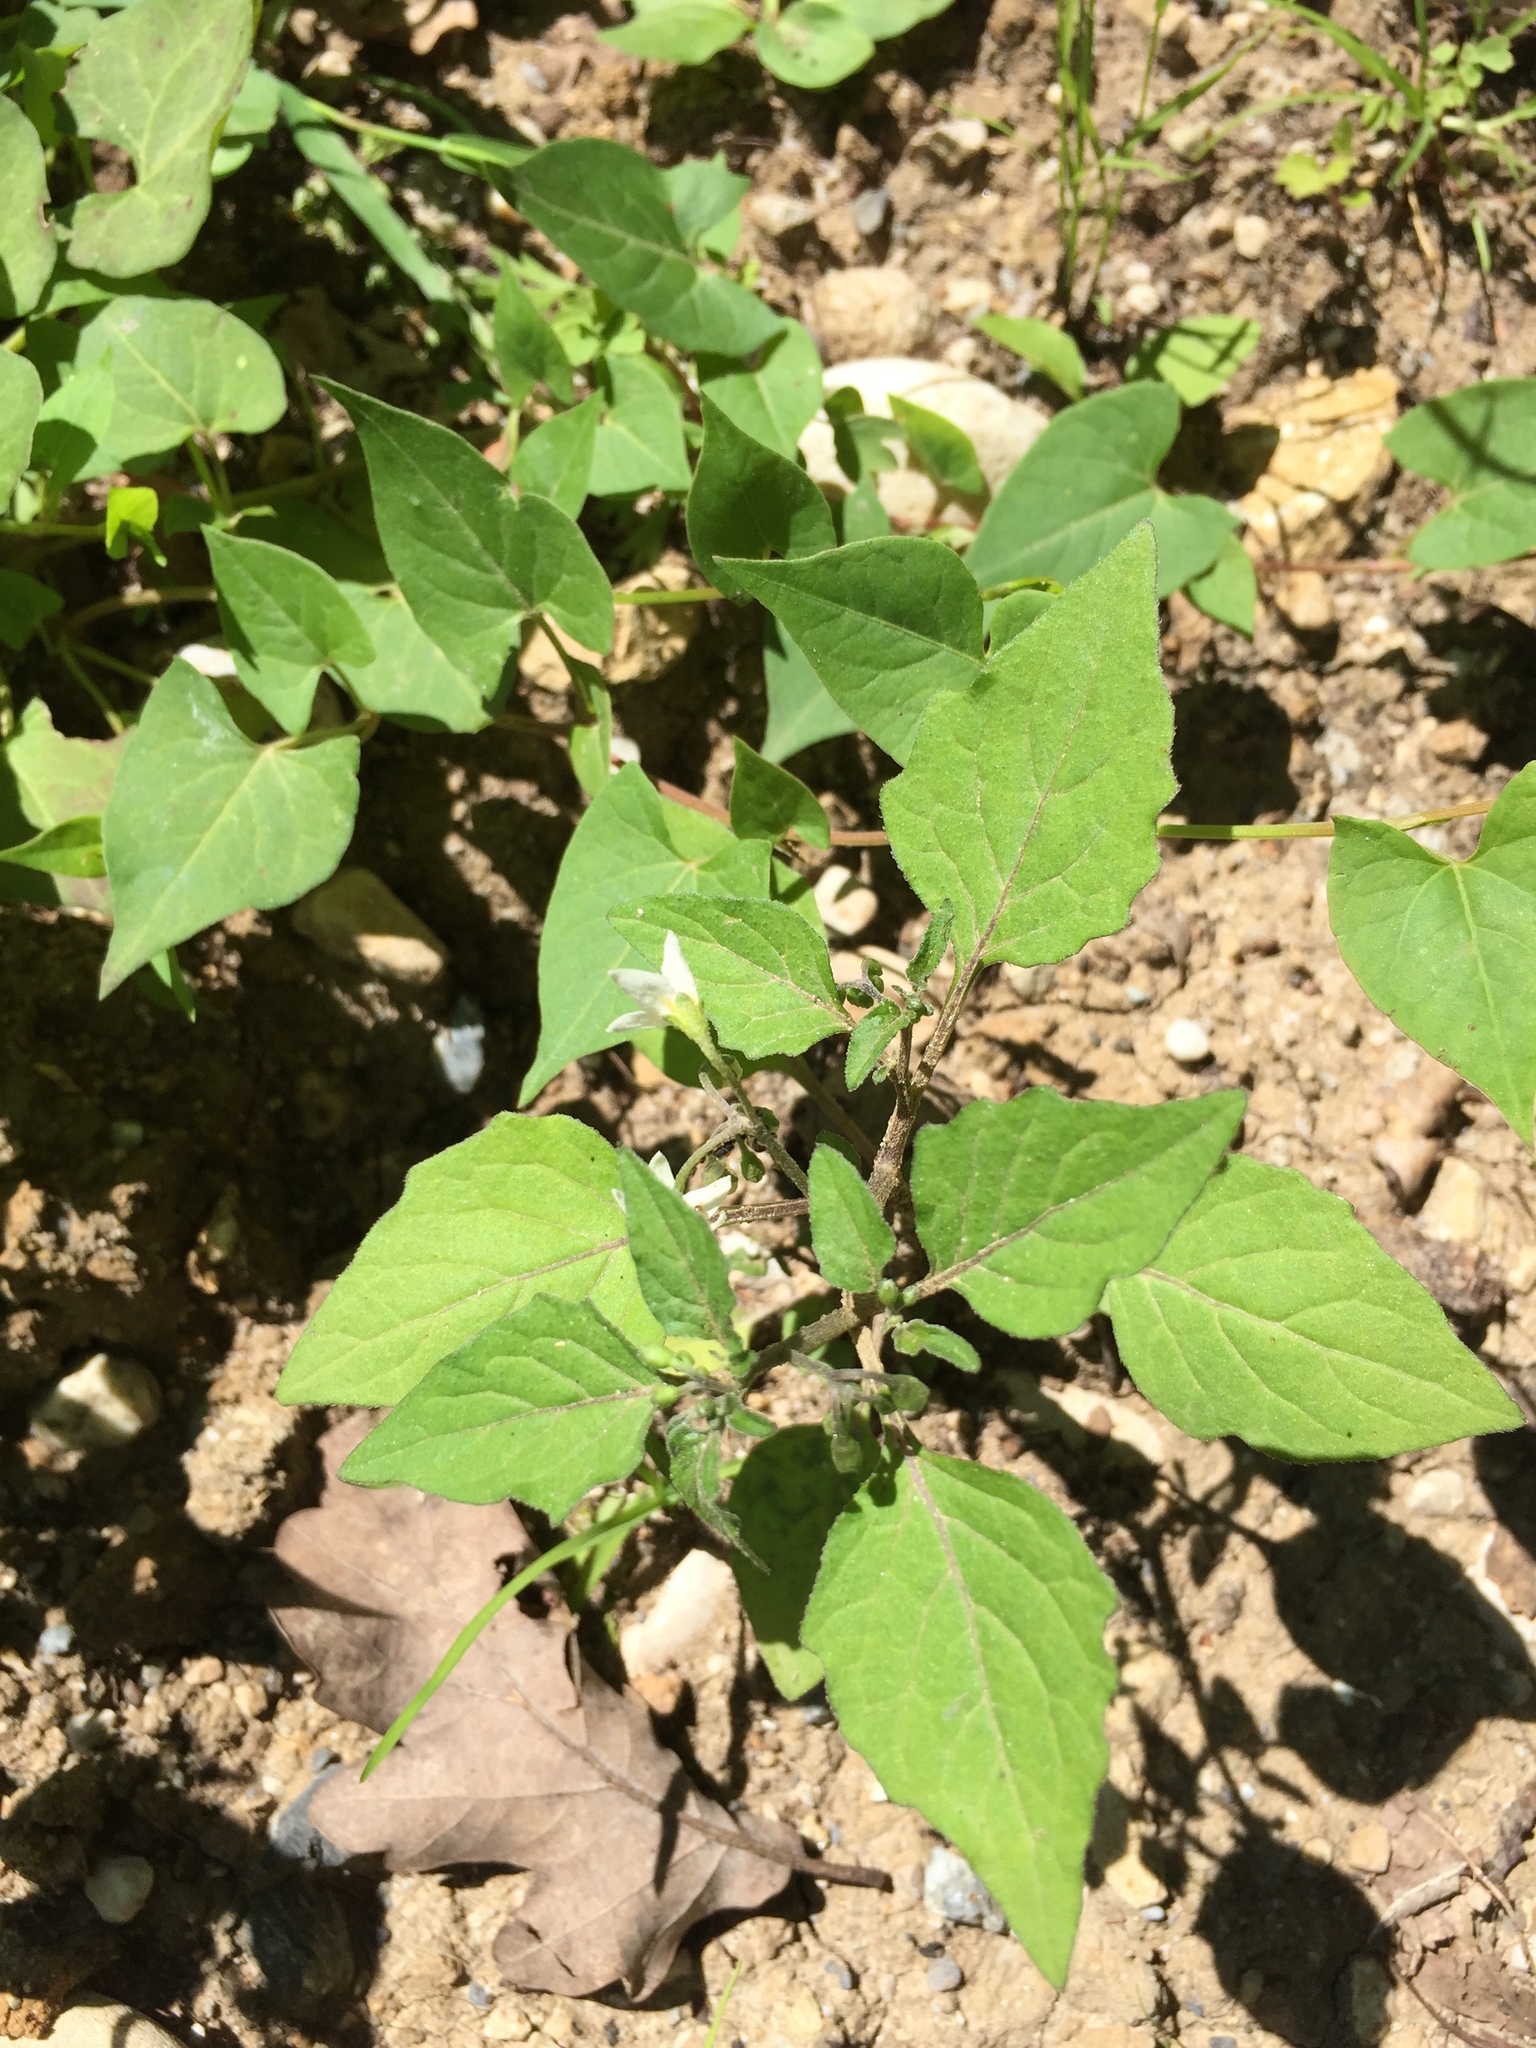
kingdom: Plantae
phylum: Tracheophyta
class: Magnoliopsida
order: Solanales
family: Solanaceae
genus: Solanum
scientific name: Solanum nigrum
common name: Black nightshade
